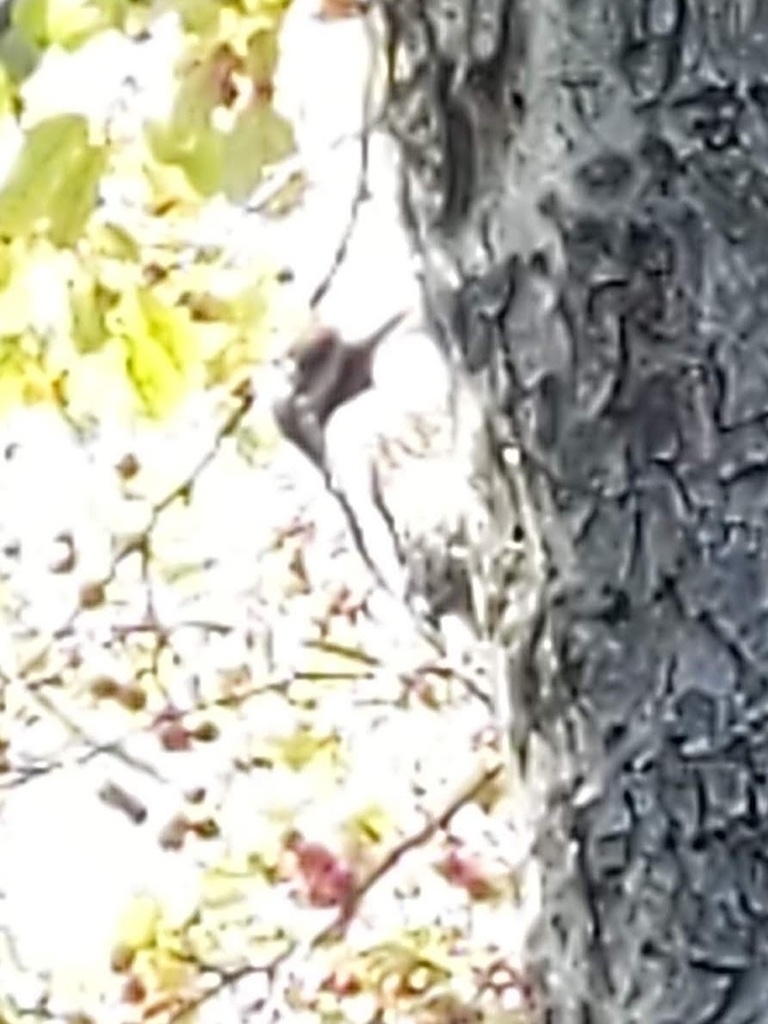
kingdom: Animalia
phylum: Chordata
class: Aves
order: Piciformes
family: Picidae
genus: Sphyrapicus
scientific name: Sphyrapicus varius
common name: Yellow-bellied sapsucker
